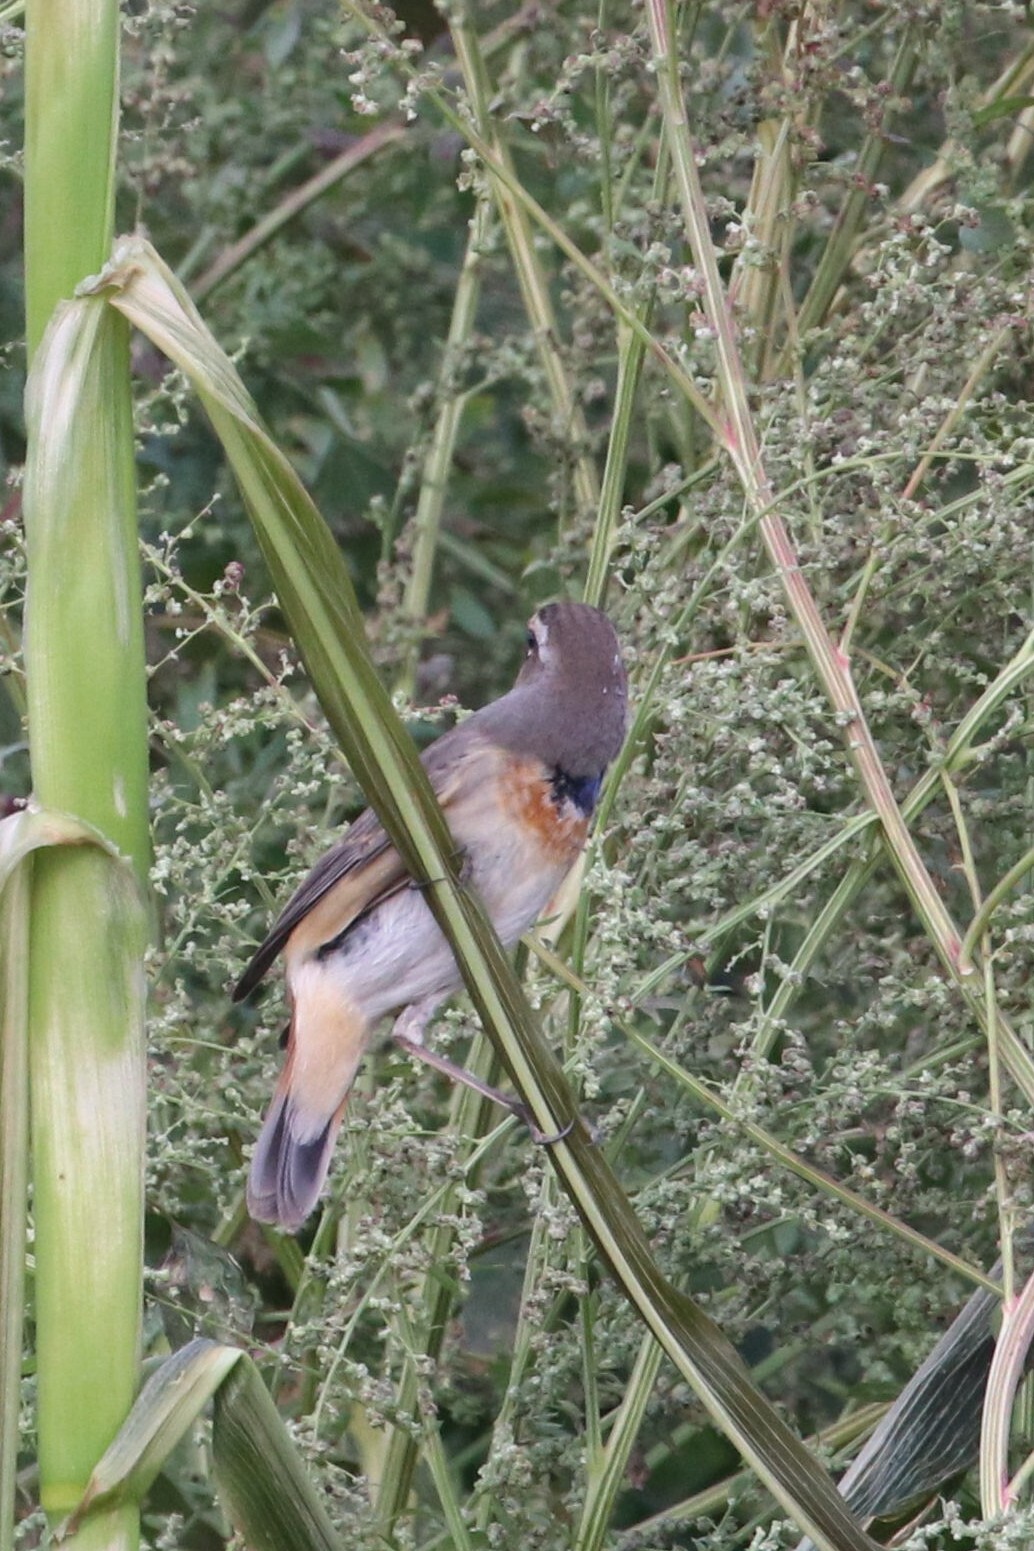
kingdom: Animalia
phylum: Chordata
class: Aves
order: Passeriformes
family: Muscicapidae
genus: Luscinia
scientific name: Luscinia svecica
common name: Bluethroat
